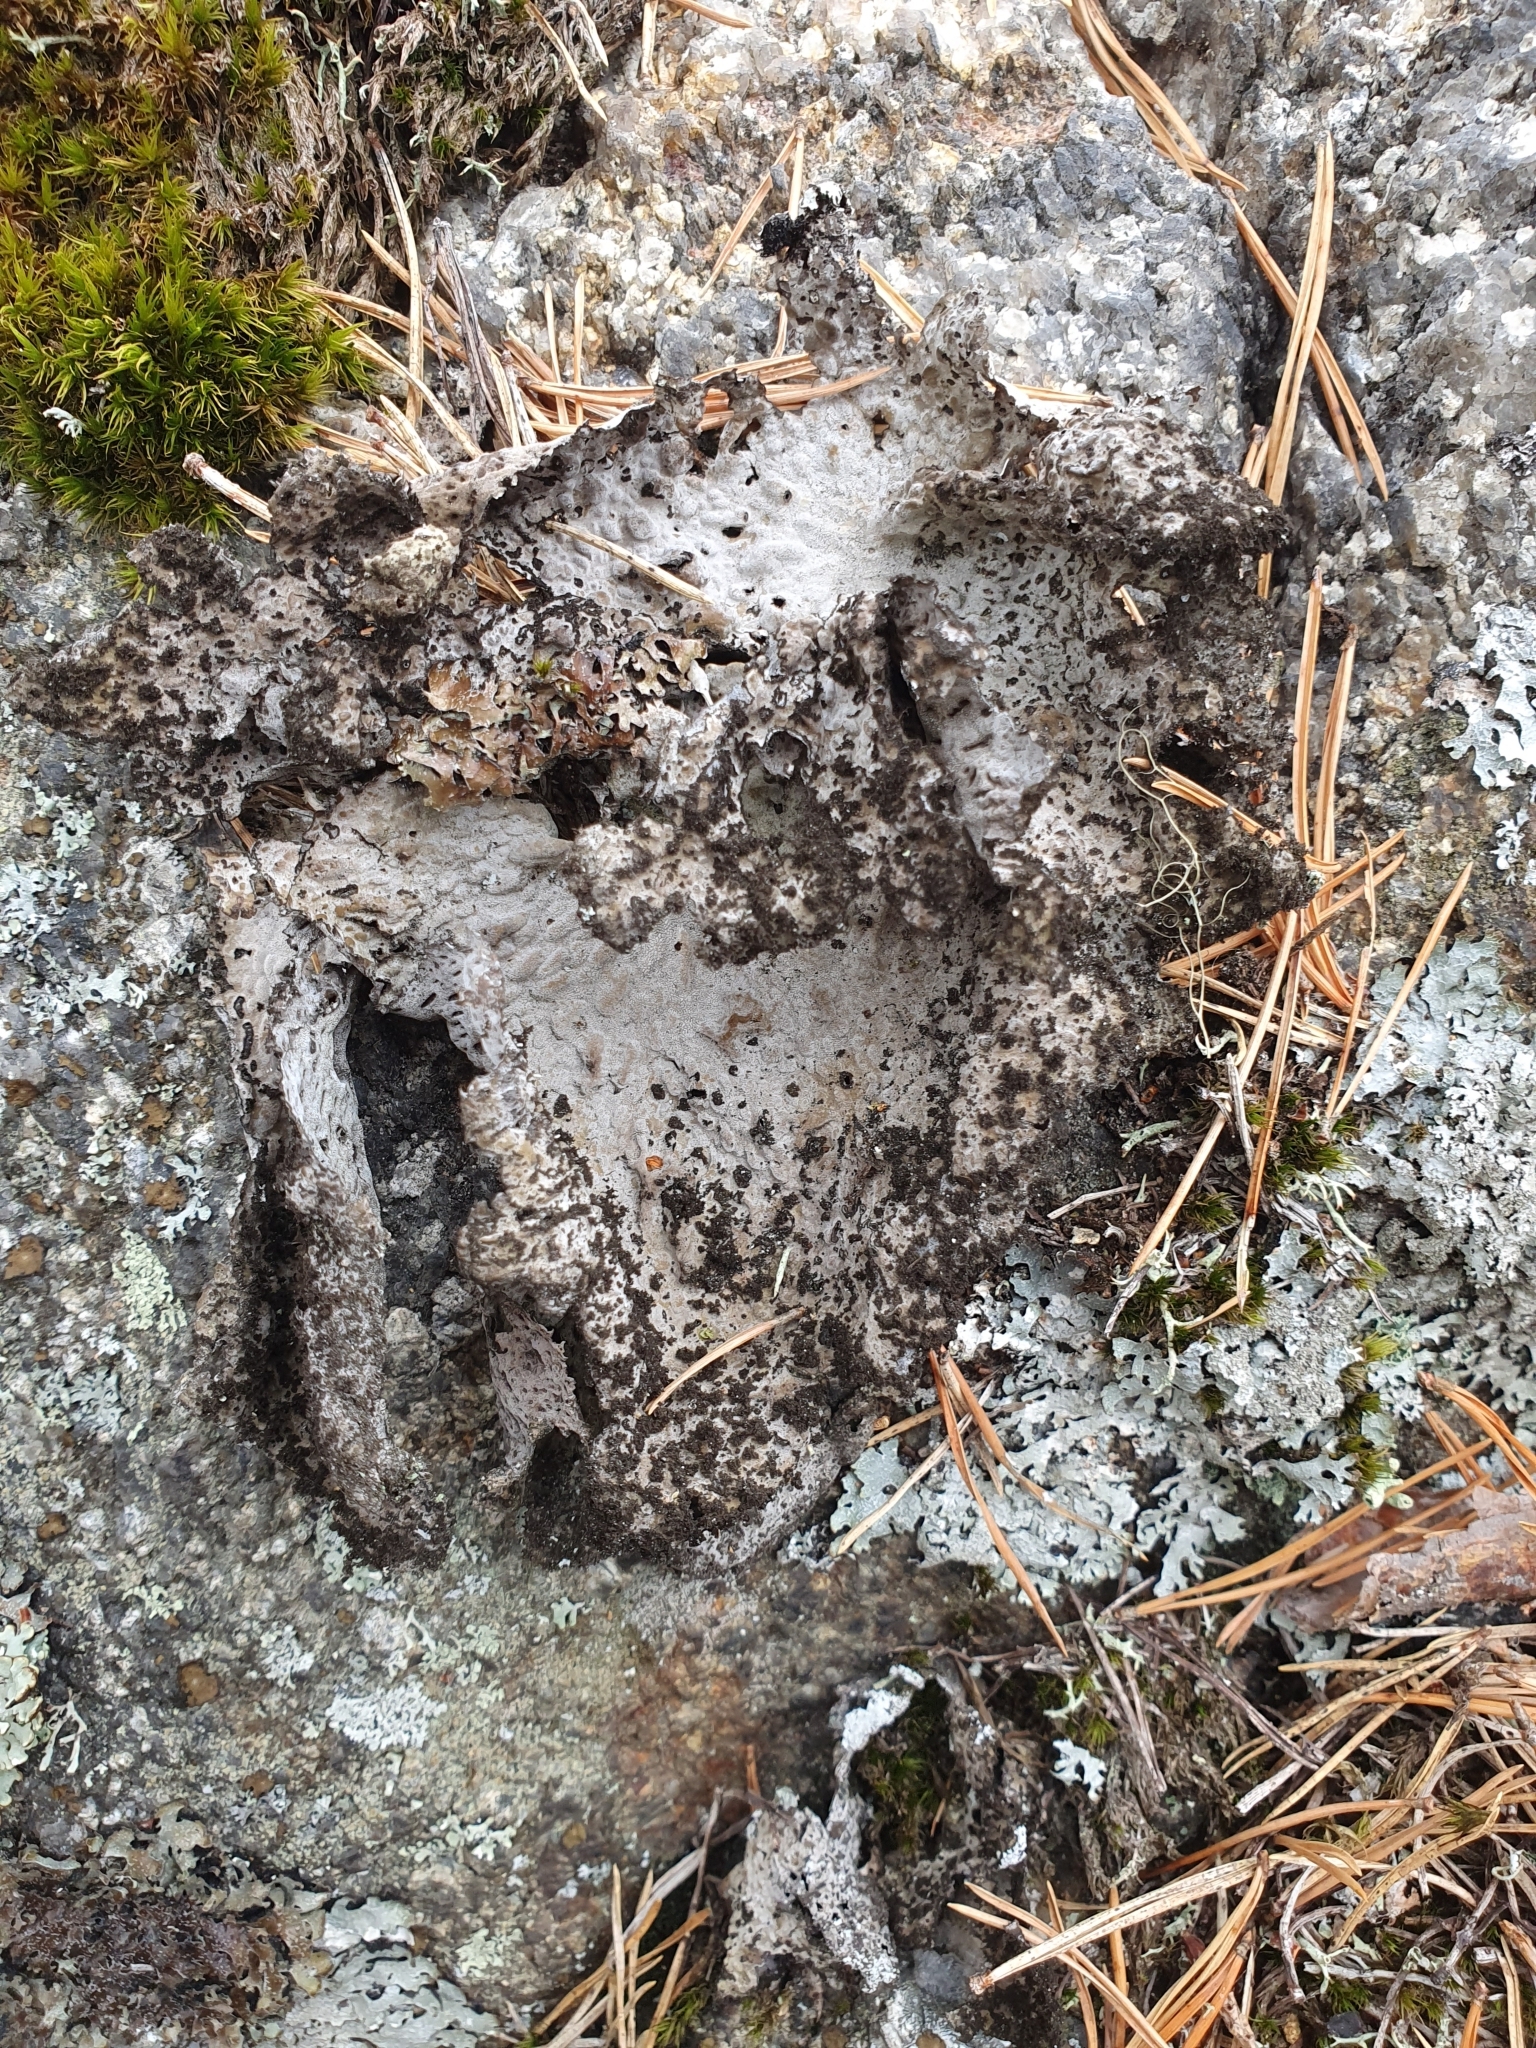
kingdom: Fungi
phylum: Ascomycota
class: Lecanoromycetes
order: Umbilicariales
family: Umbilicariaceae
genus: Lasallia
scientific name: Lasallia pustulata
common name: Blistered toadskin lichen
